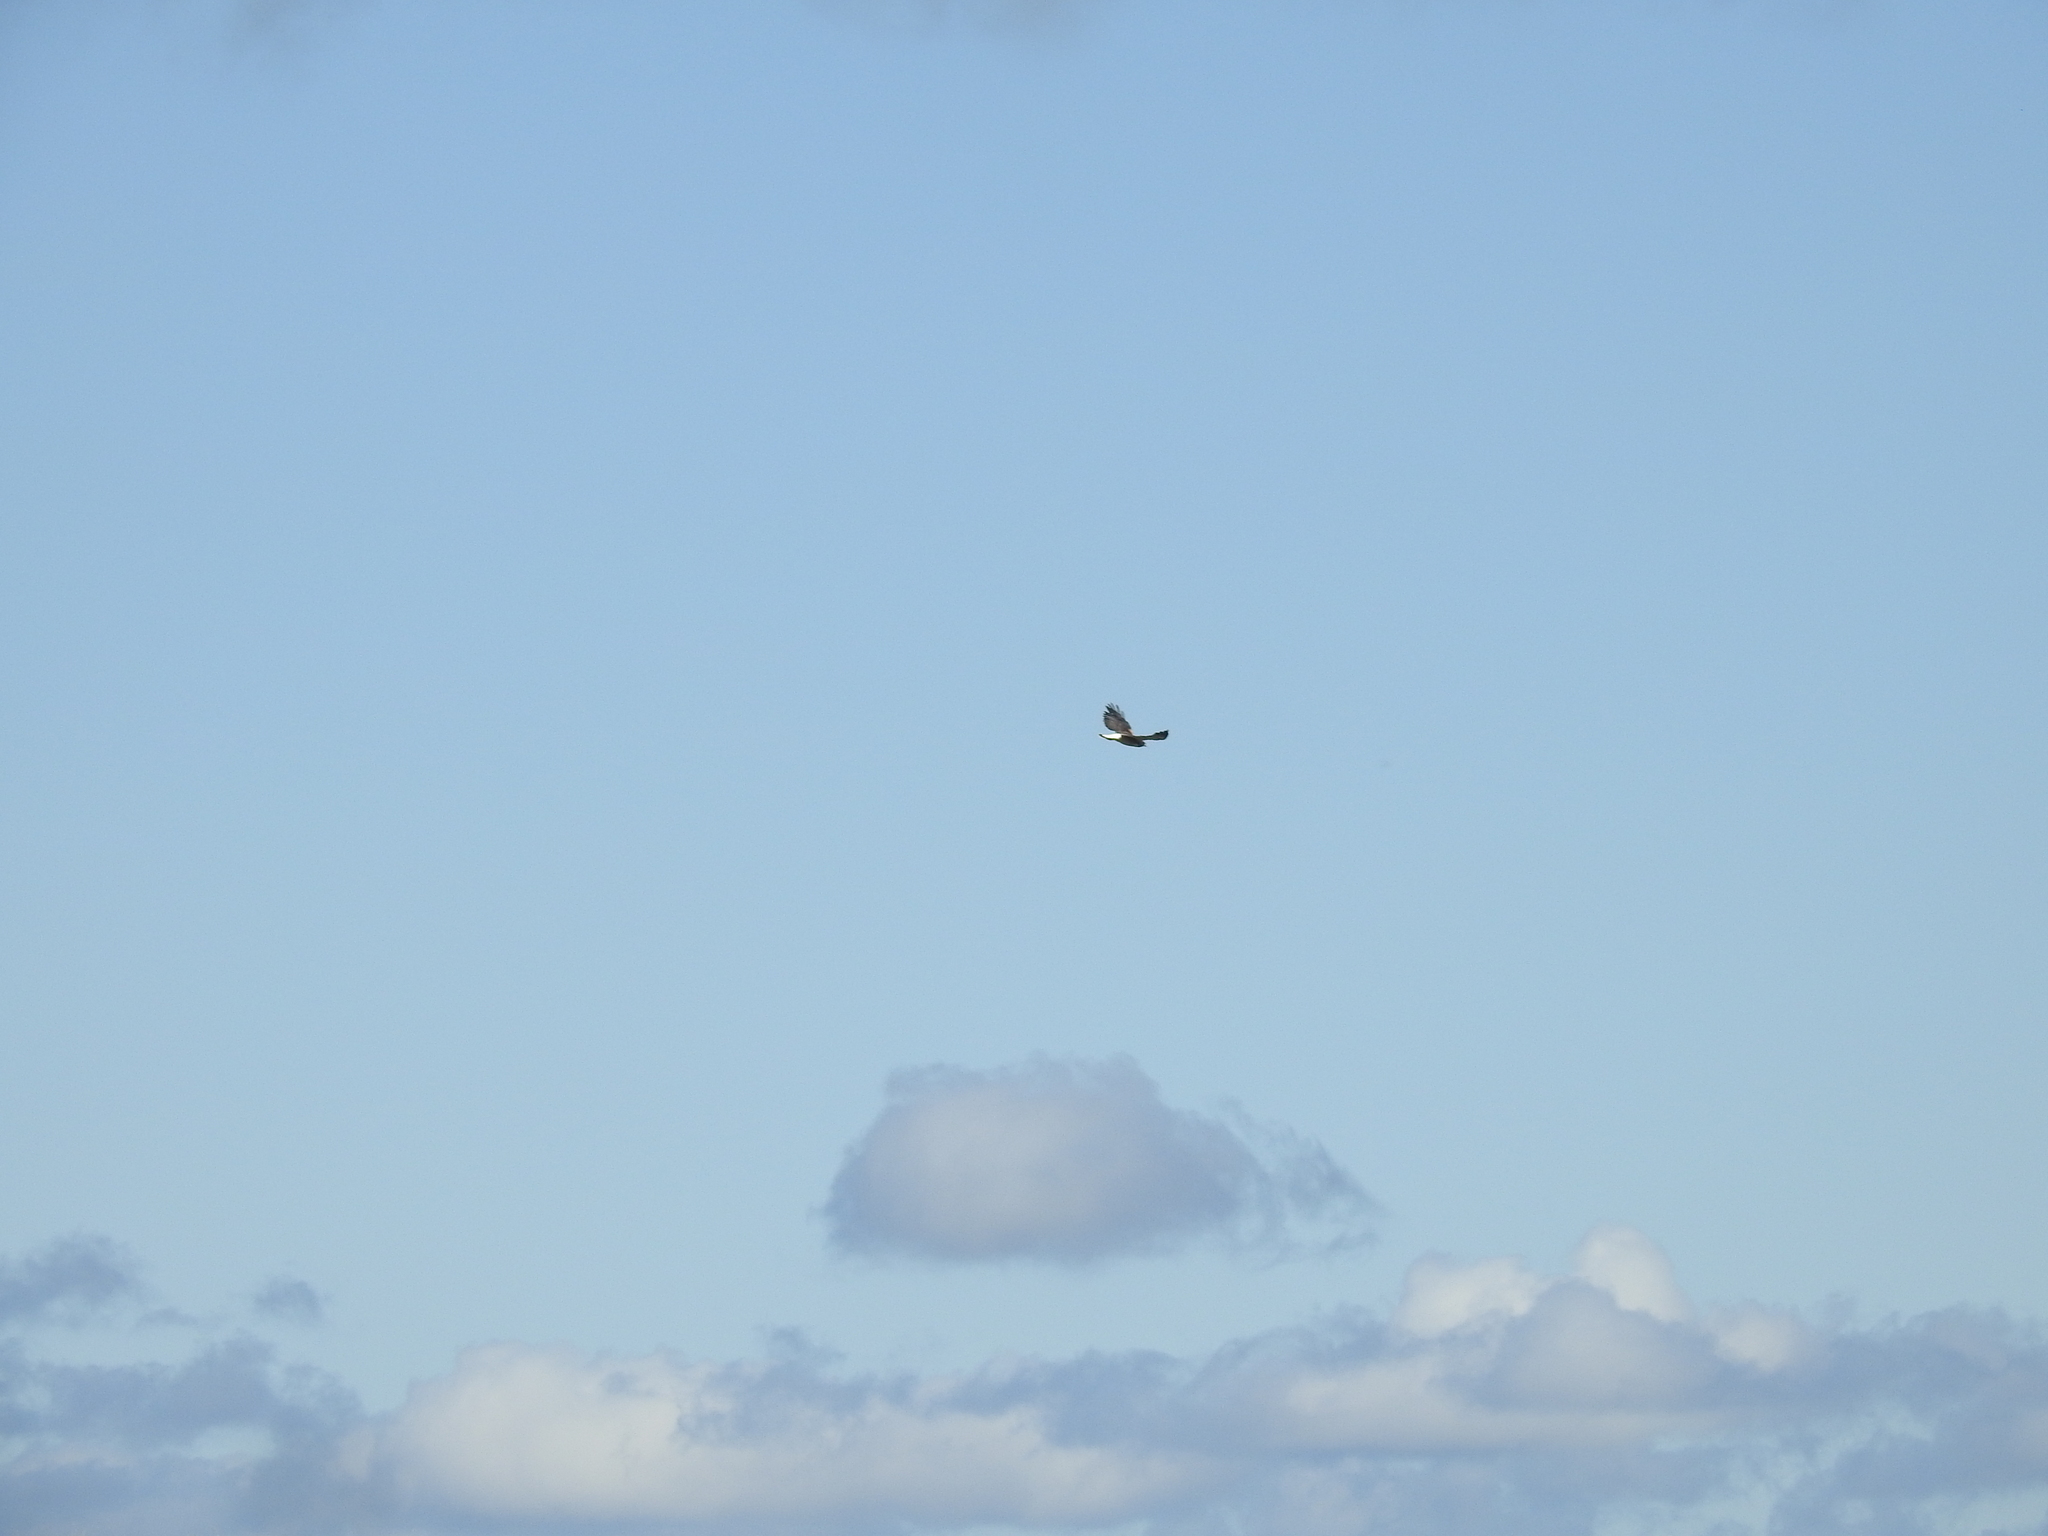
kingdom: Animalia
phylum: Chordata
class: Aves
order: Accipitriformes
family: Accipitridae
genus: Buteo
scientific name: Buteo albicaudatus
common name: White-tailed hawk
